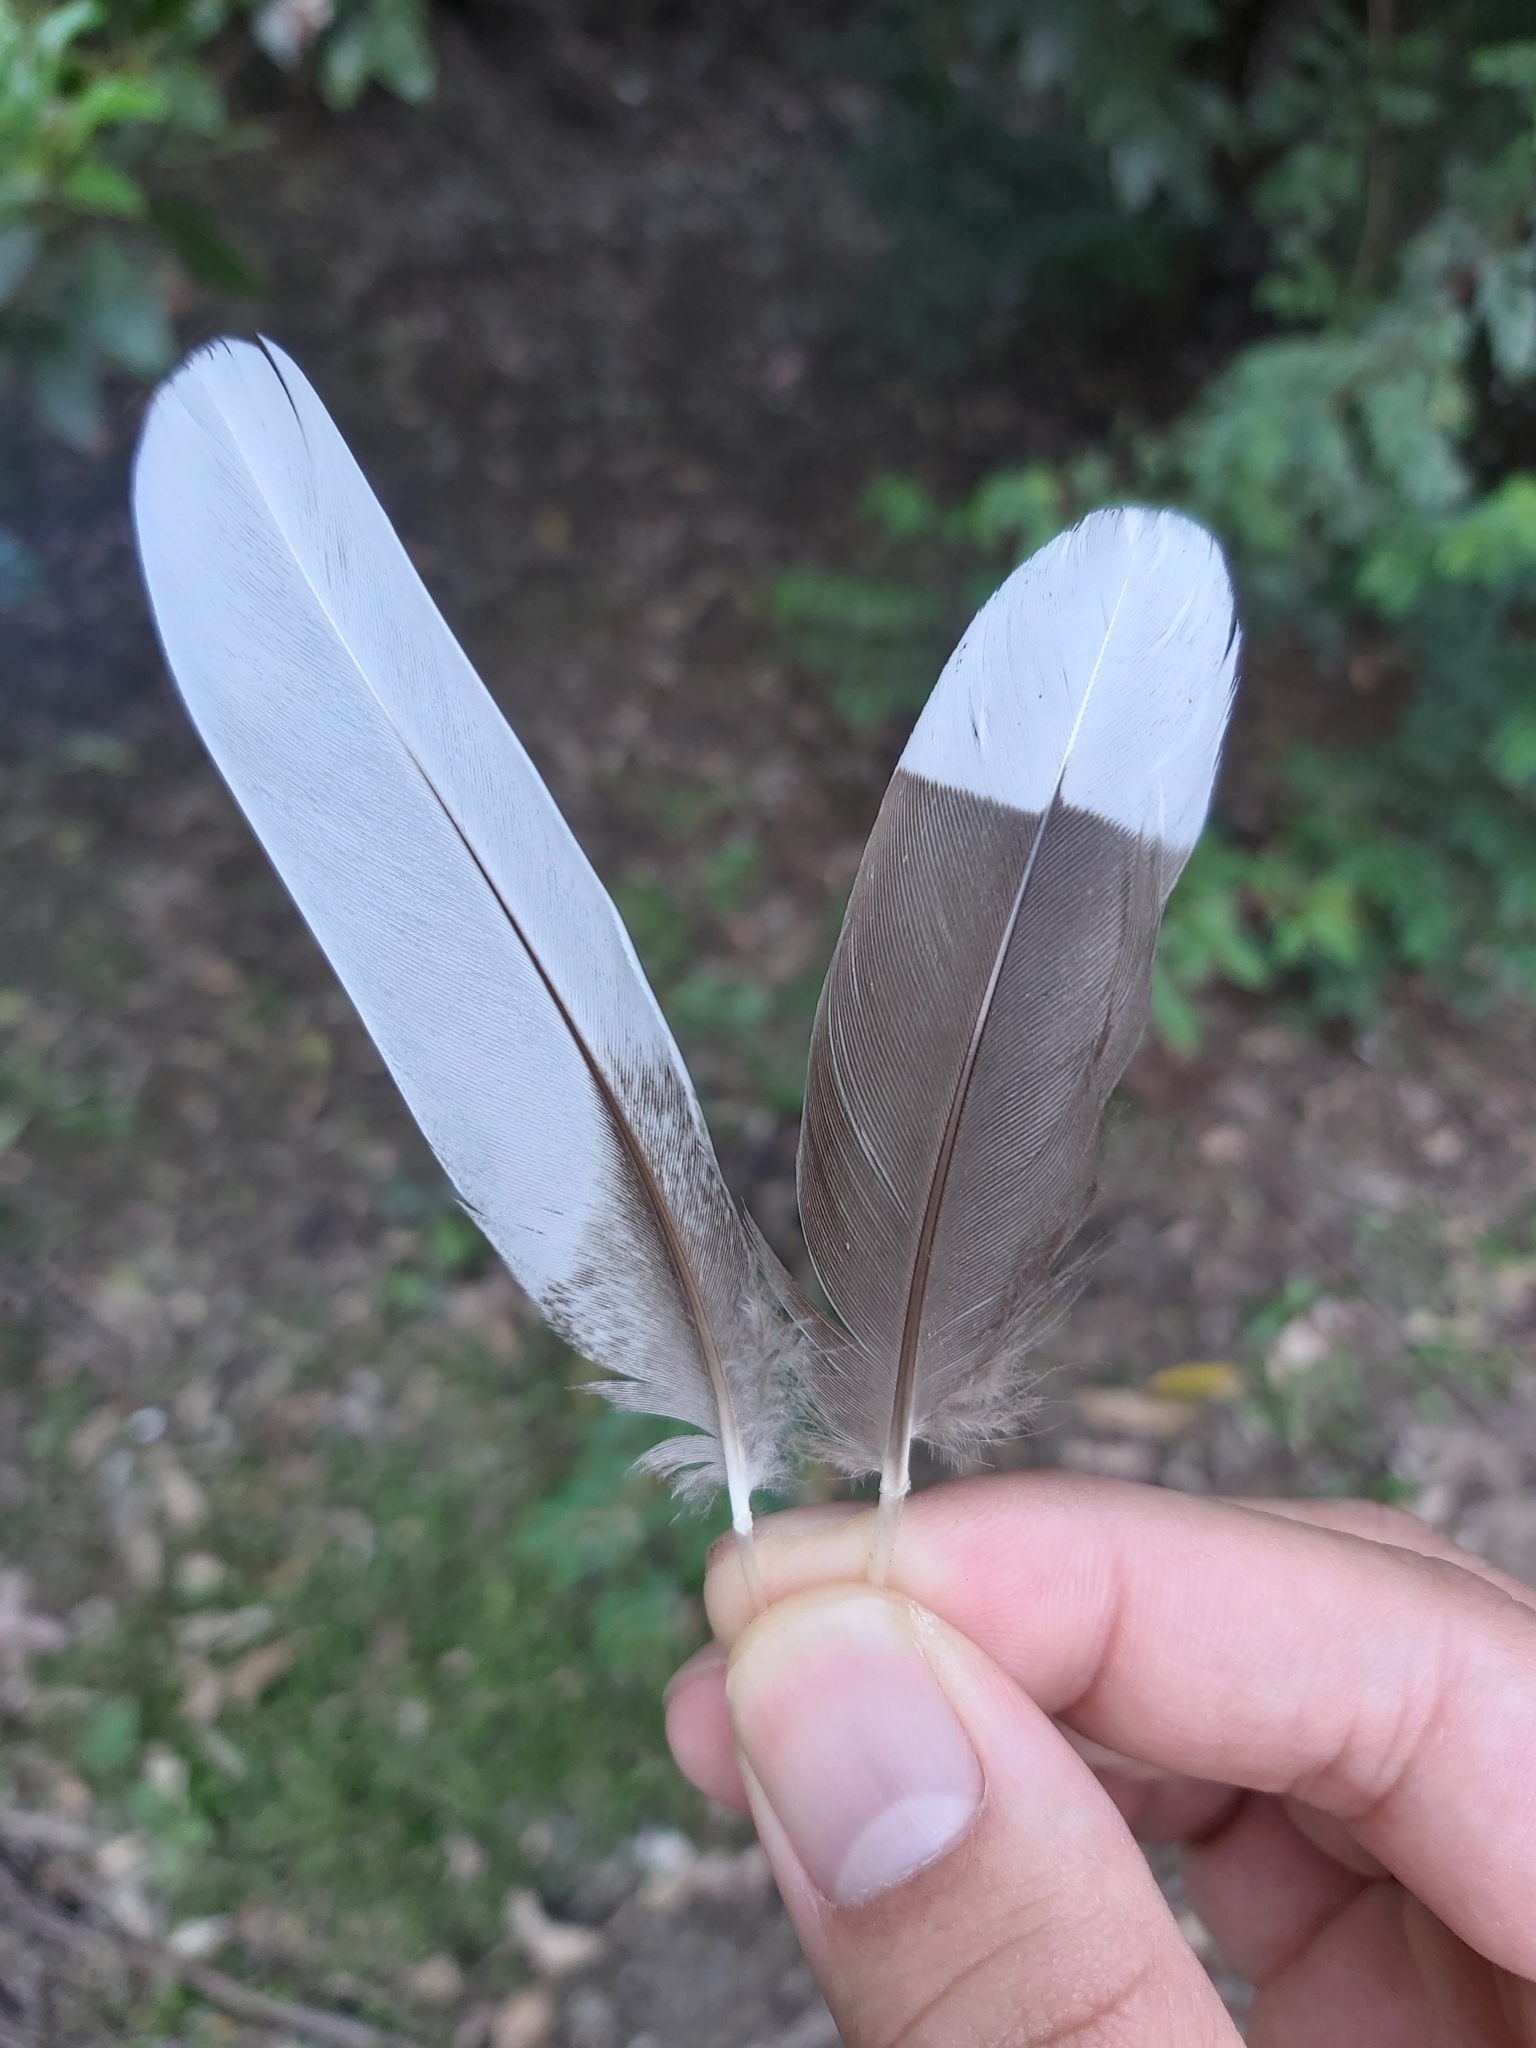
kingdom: Animalia
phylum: Chordata
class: Aves
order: Anseriformes
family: Anatidae
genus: Chenonetta
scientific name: Chenonetta jubata
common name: Maned duck
